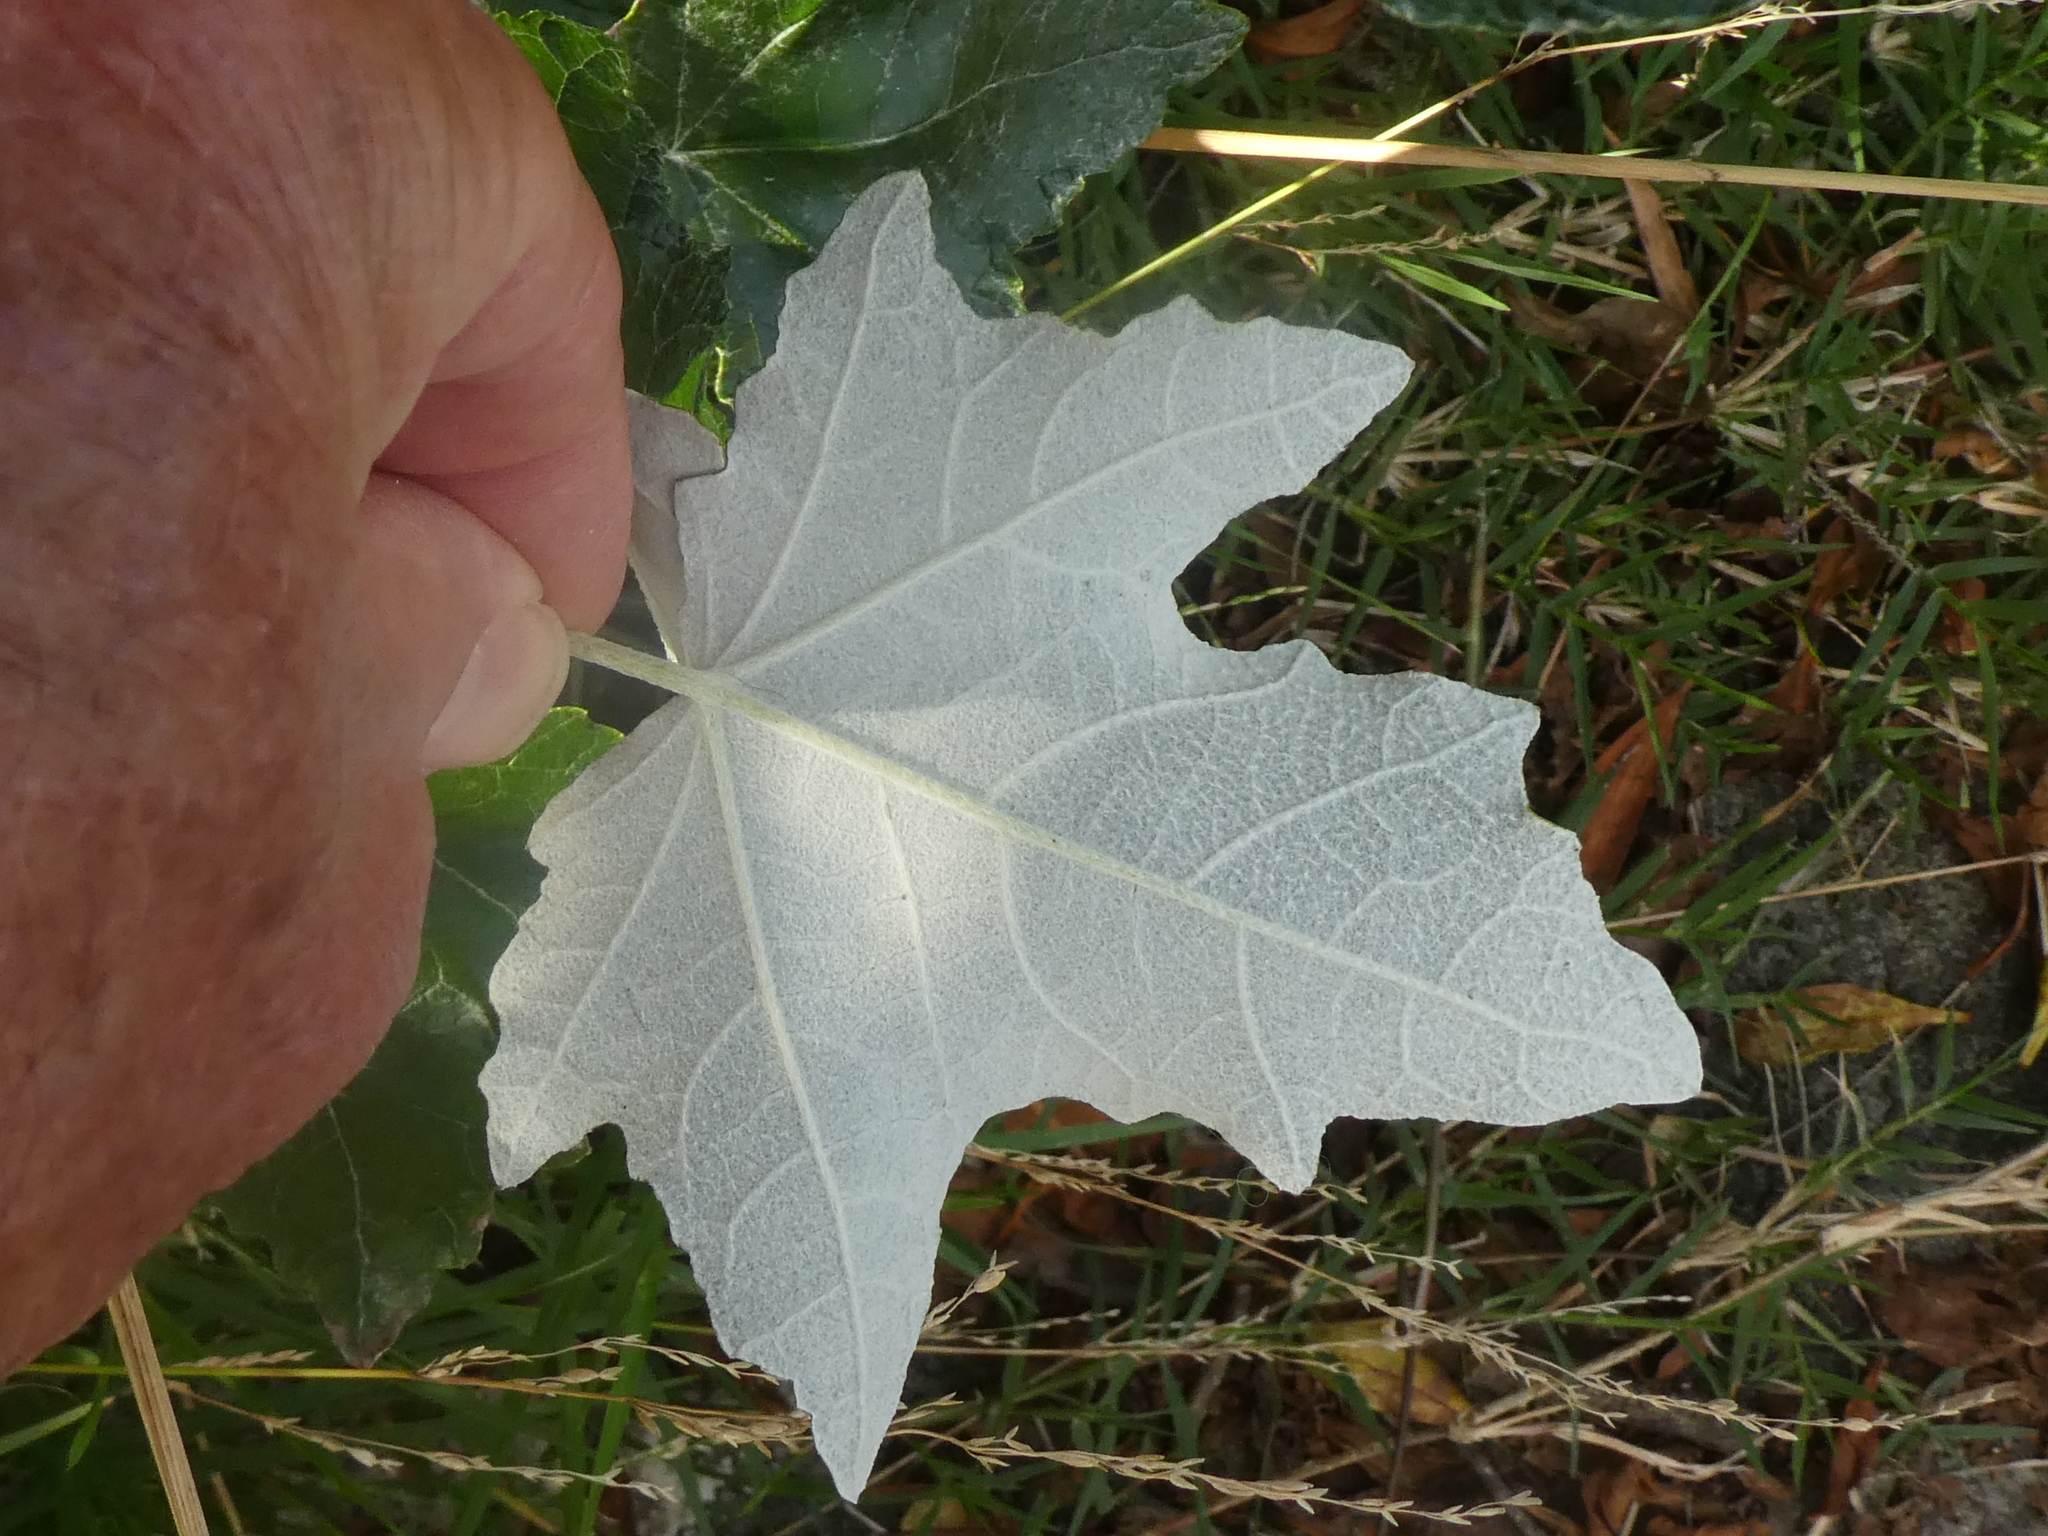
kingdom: Plantae
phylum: Tracheophyta
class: Magnoliopsida
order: Malpighiales
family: Salicaceae
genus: Populus
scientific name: Populus alba
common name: White poplar
